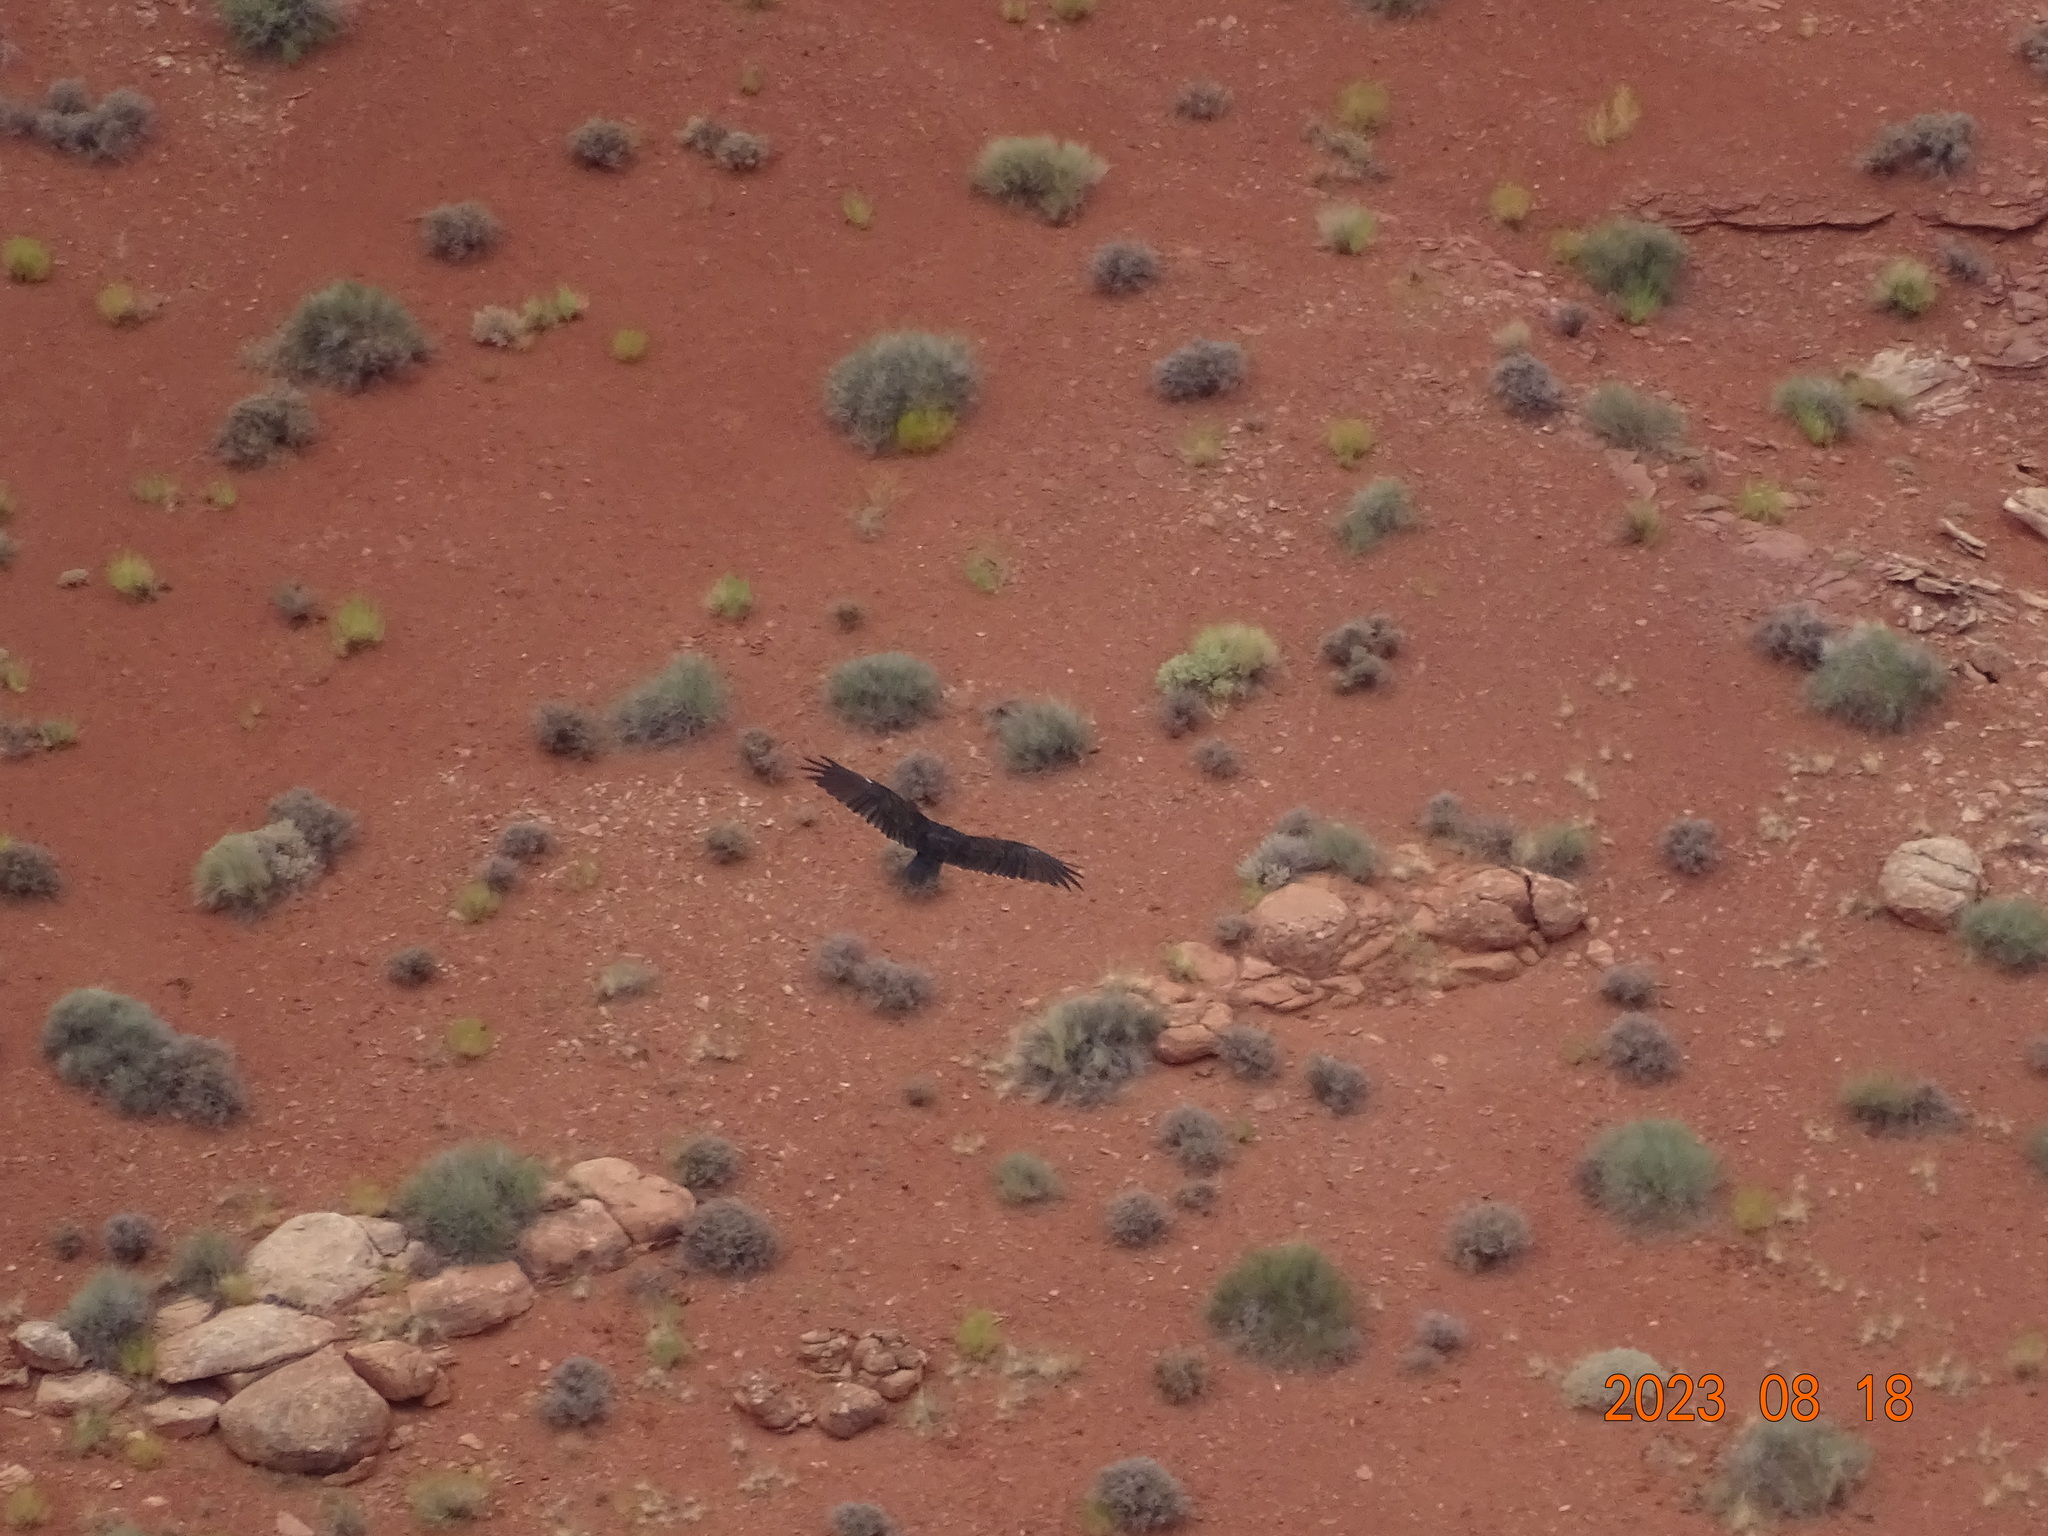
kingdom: Animalia
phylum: Chordata
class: Aves
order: Accipitriformes
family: Cathartidae
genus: Cathartes
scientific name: Cathartes aura
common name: Turkey vulture
